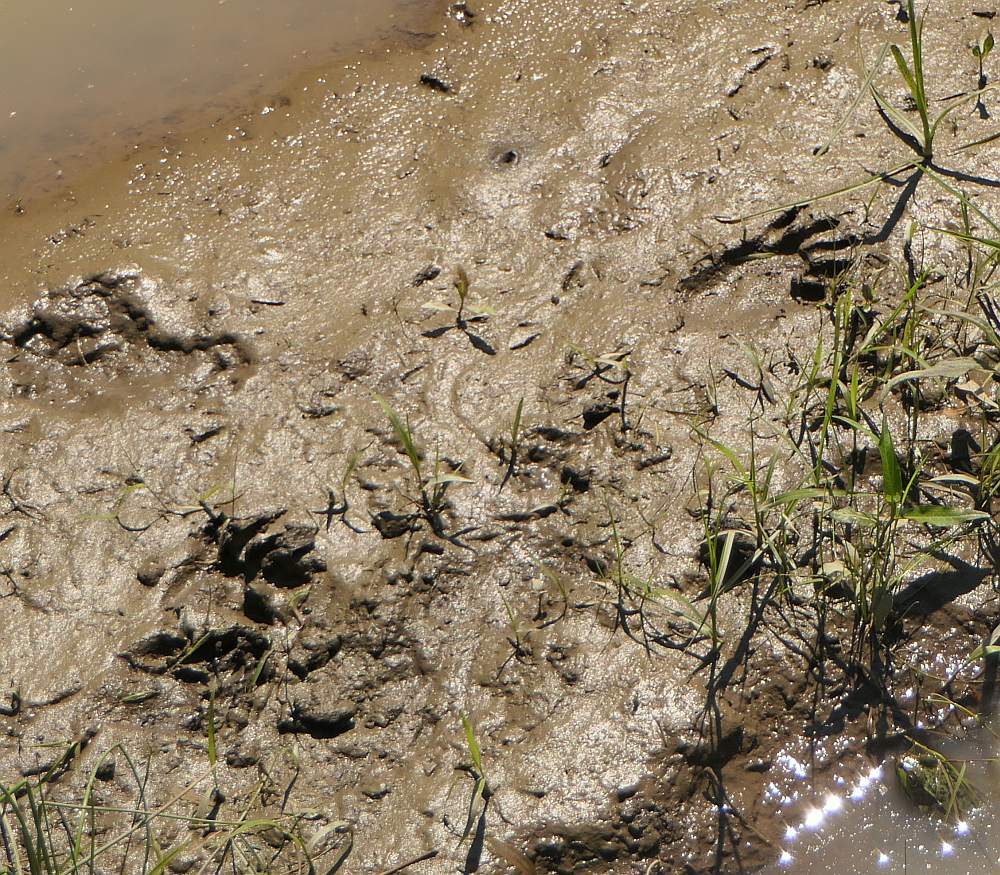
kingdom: Animalia
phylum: Chordata
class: Mammalia
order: Carnivora
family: Procyonidae
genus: Procyon
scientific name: Procyon lotor
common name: Raccoon
